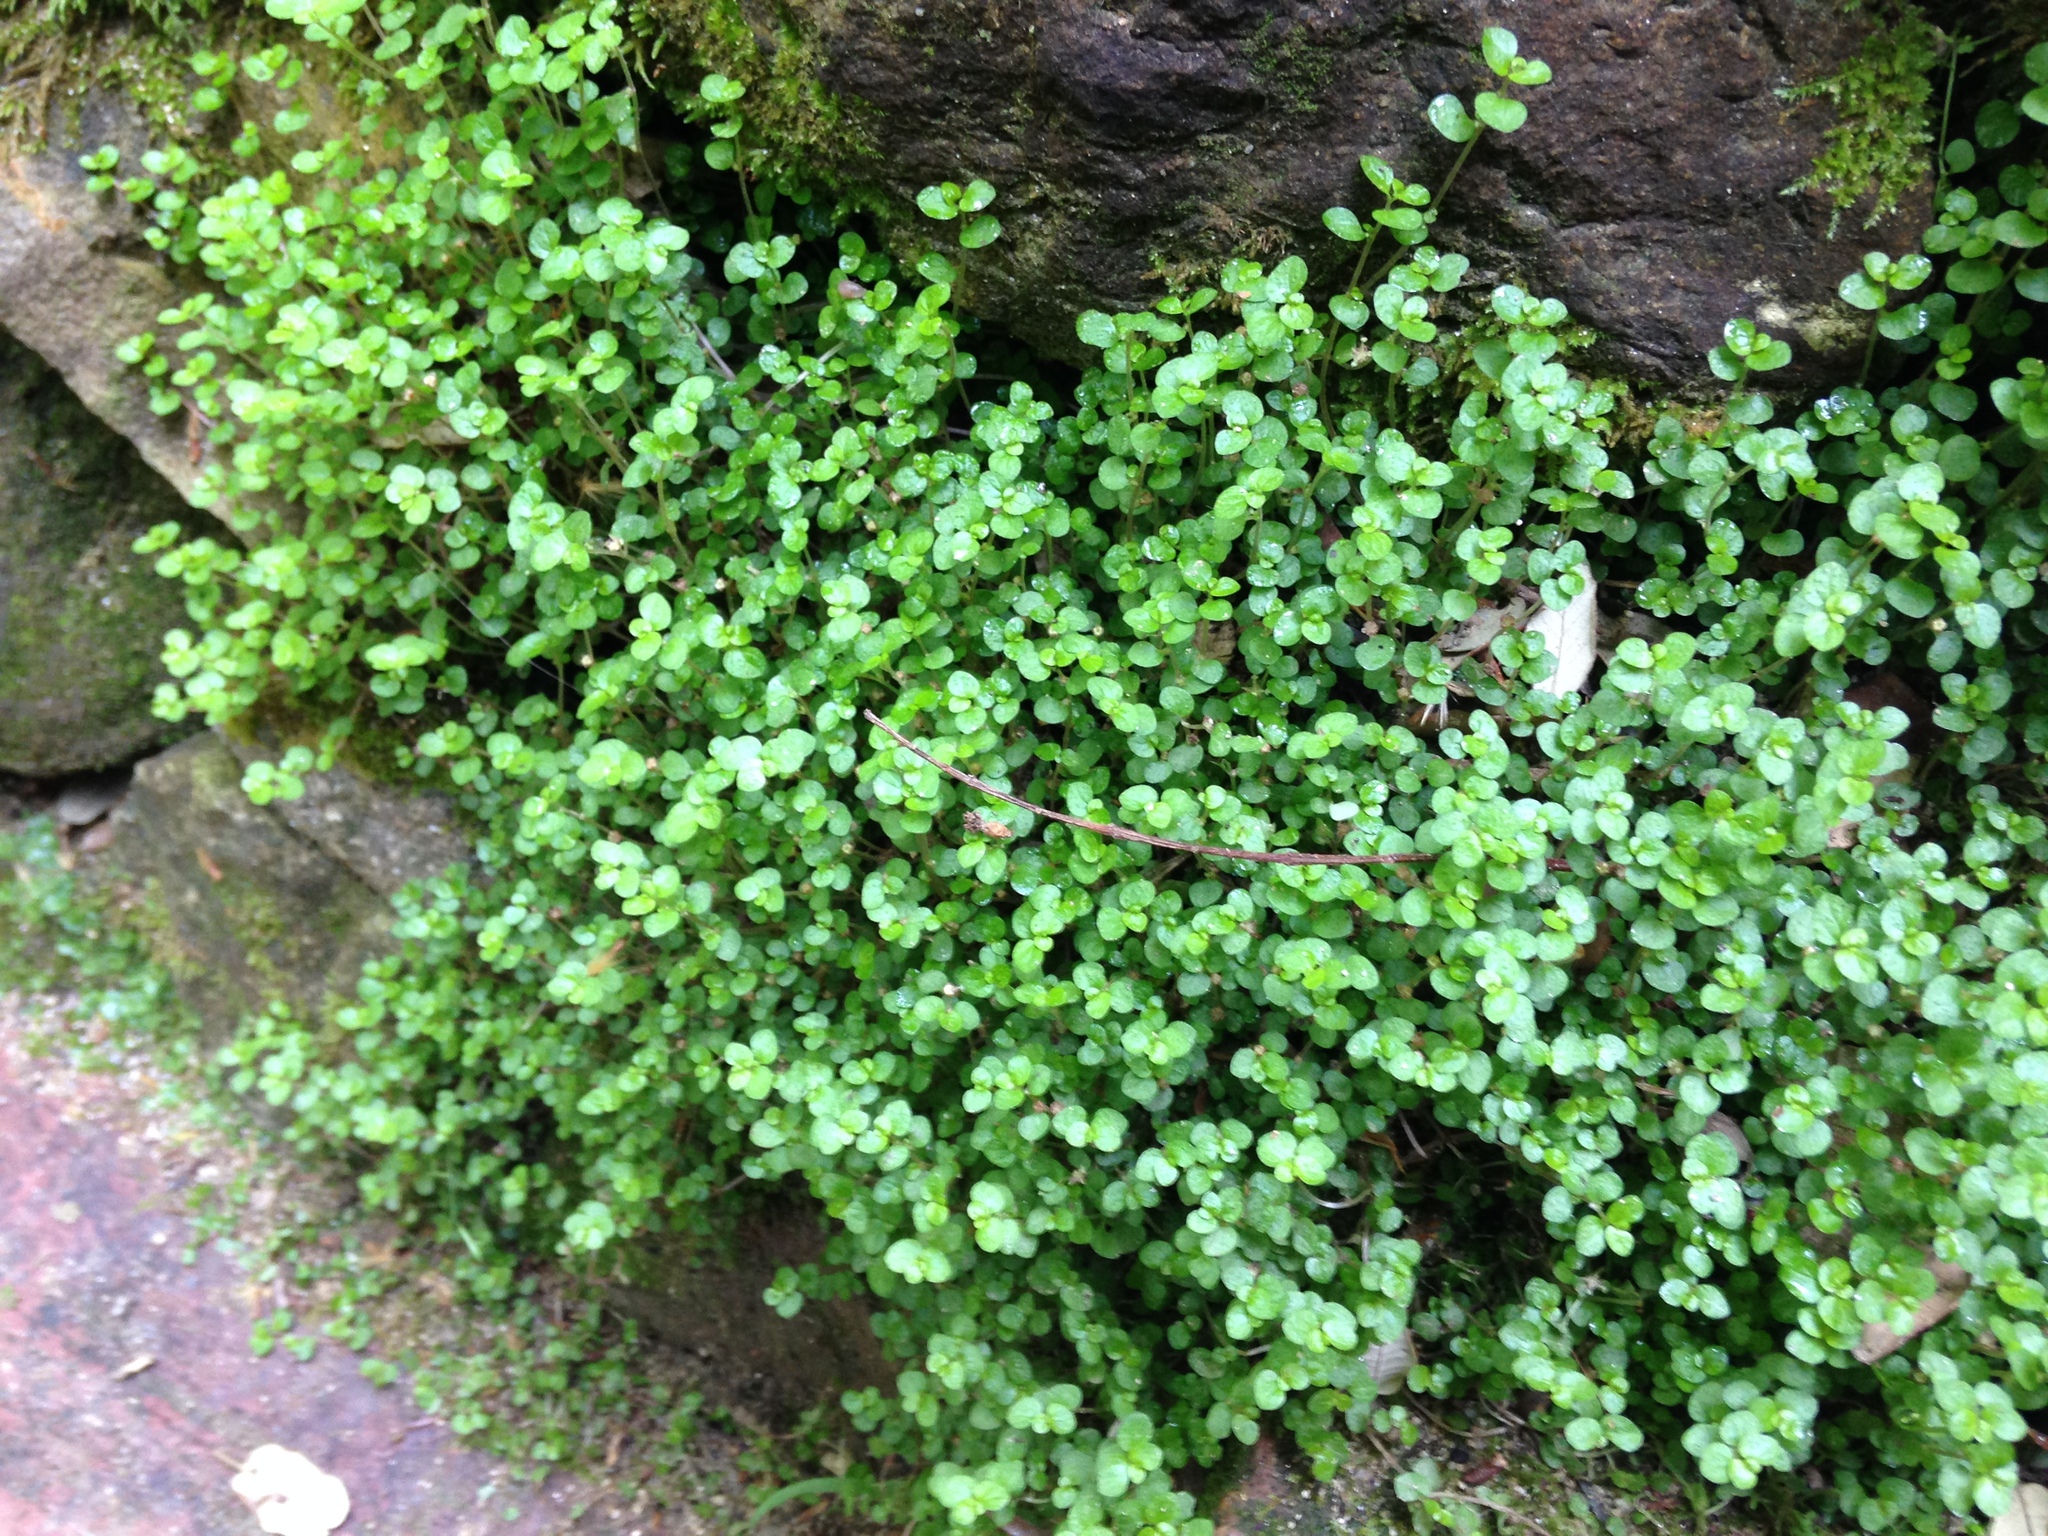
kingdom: Plantae
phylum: Tracheophyta
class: Magnoliopsida
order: Rosales
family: Urticaceae
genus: Soleirolia
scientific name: Soleirolia soleirolii
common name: Mind-your-own-business
